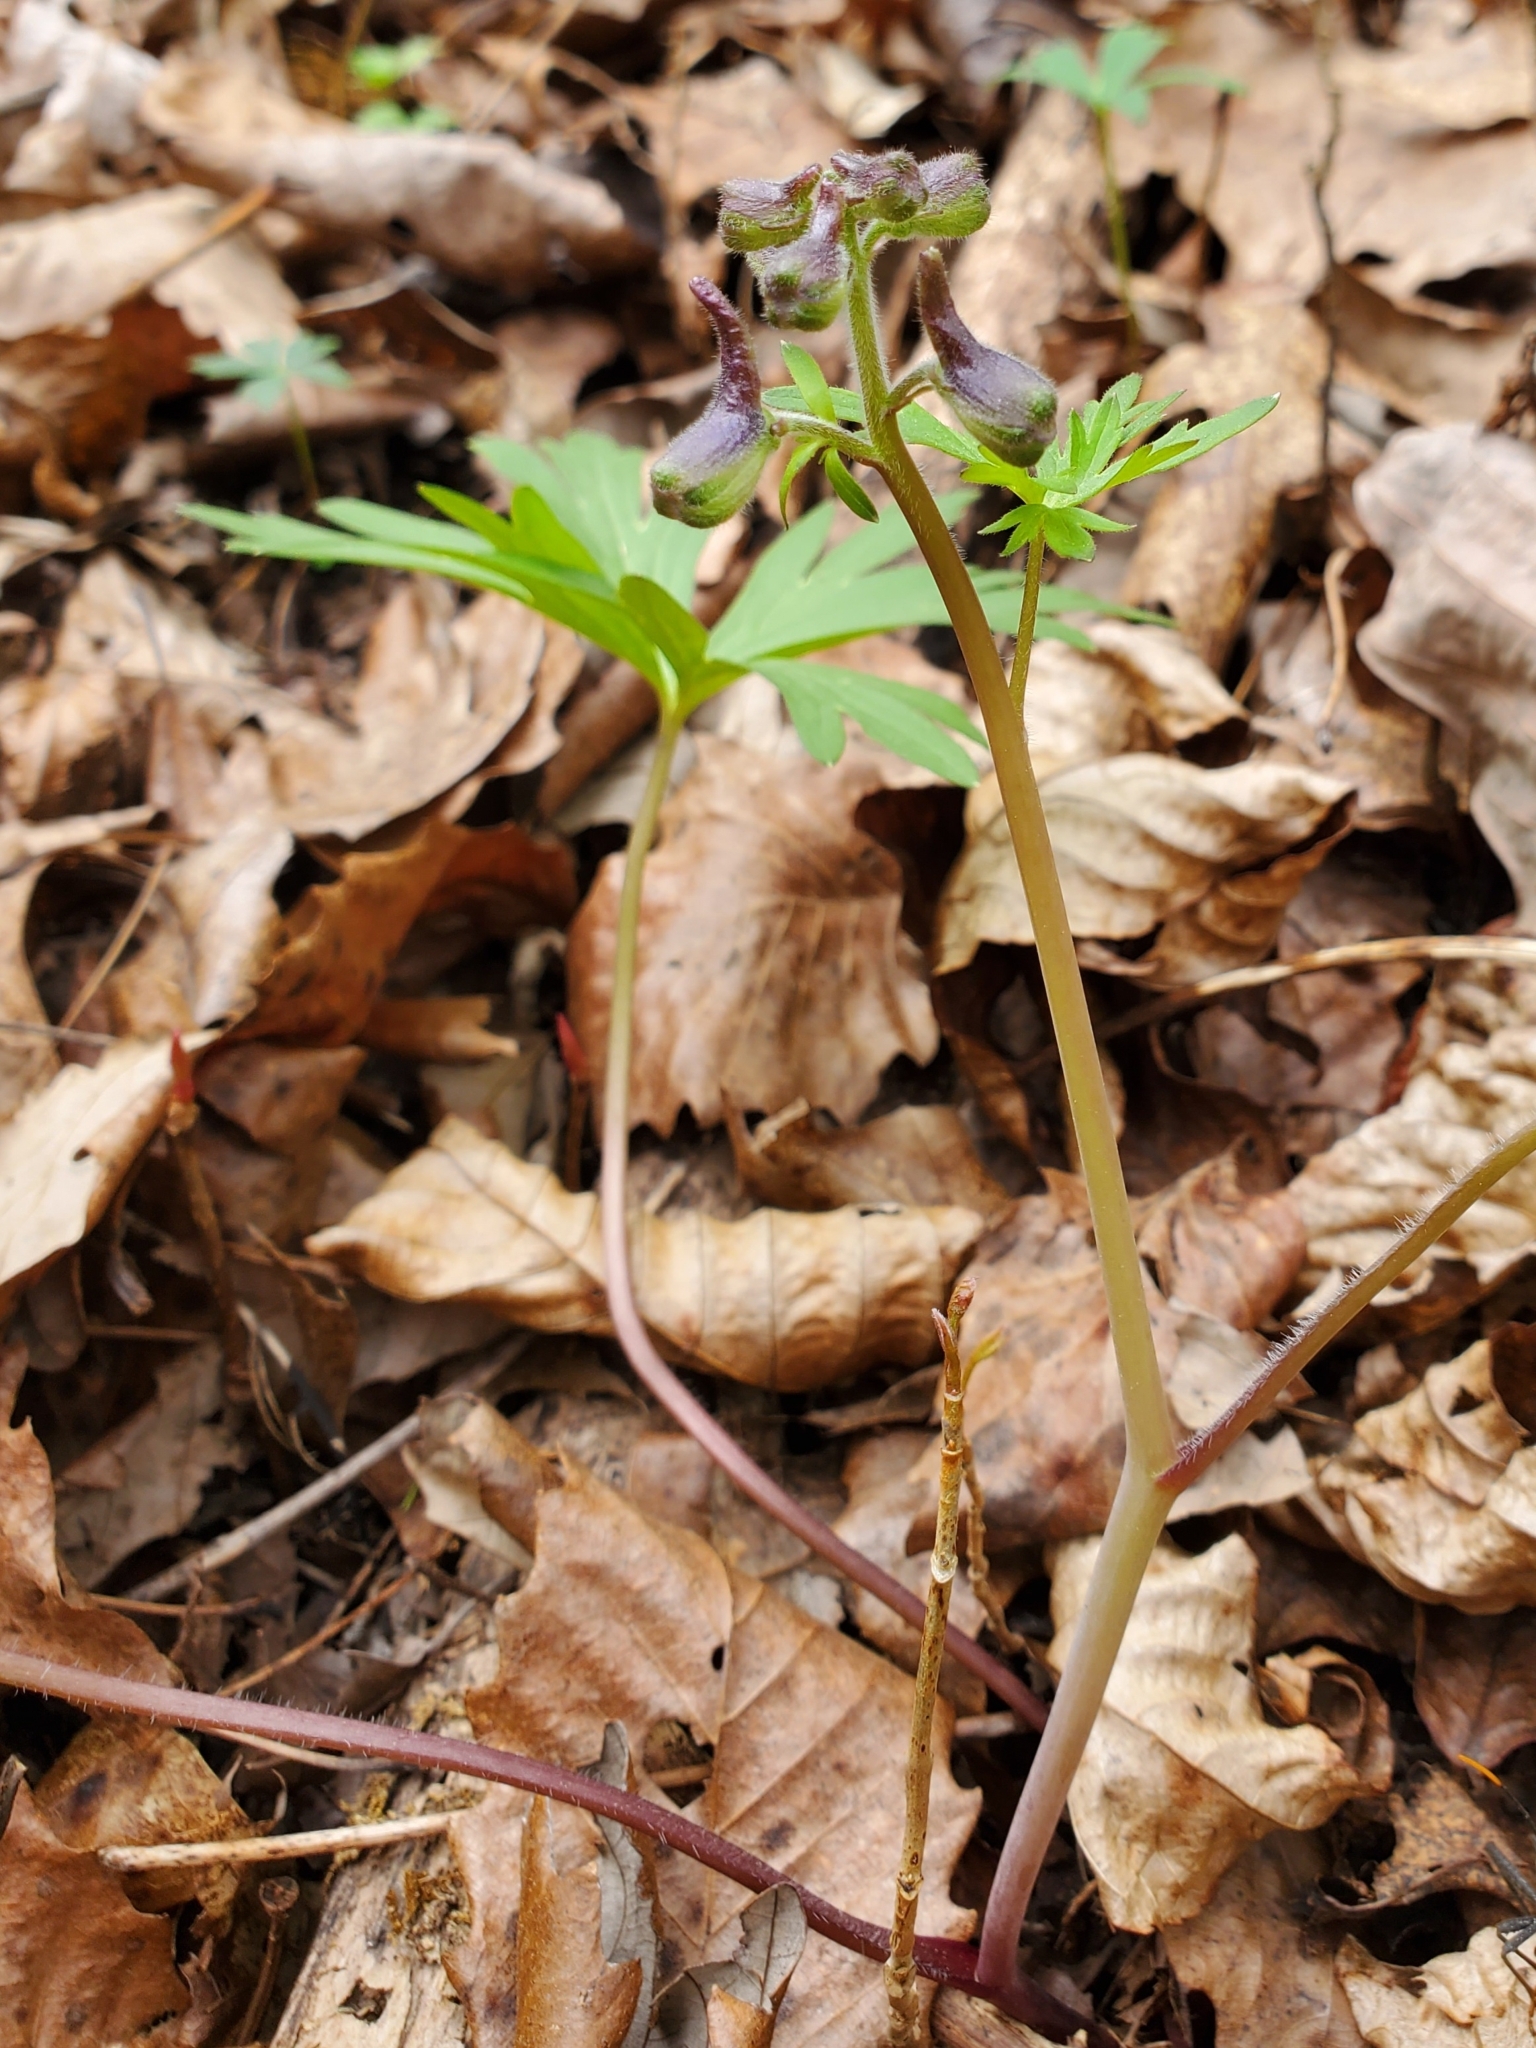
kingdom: Plantae
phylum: Tracheophyta
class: Magnoliopsida
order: Ranunculales
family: Ranunculaceae
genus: Delphinium
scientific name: Delphinium tricorne
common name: Dwarf larkspur
